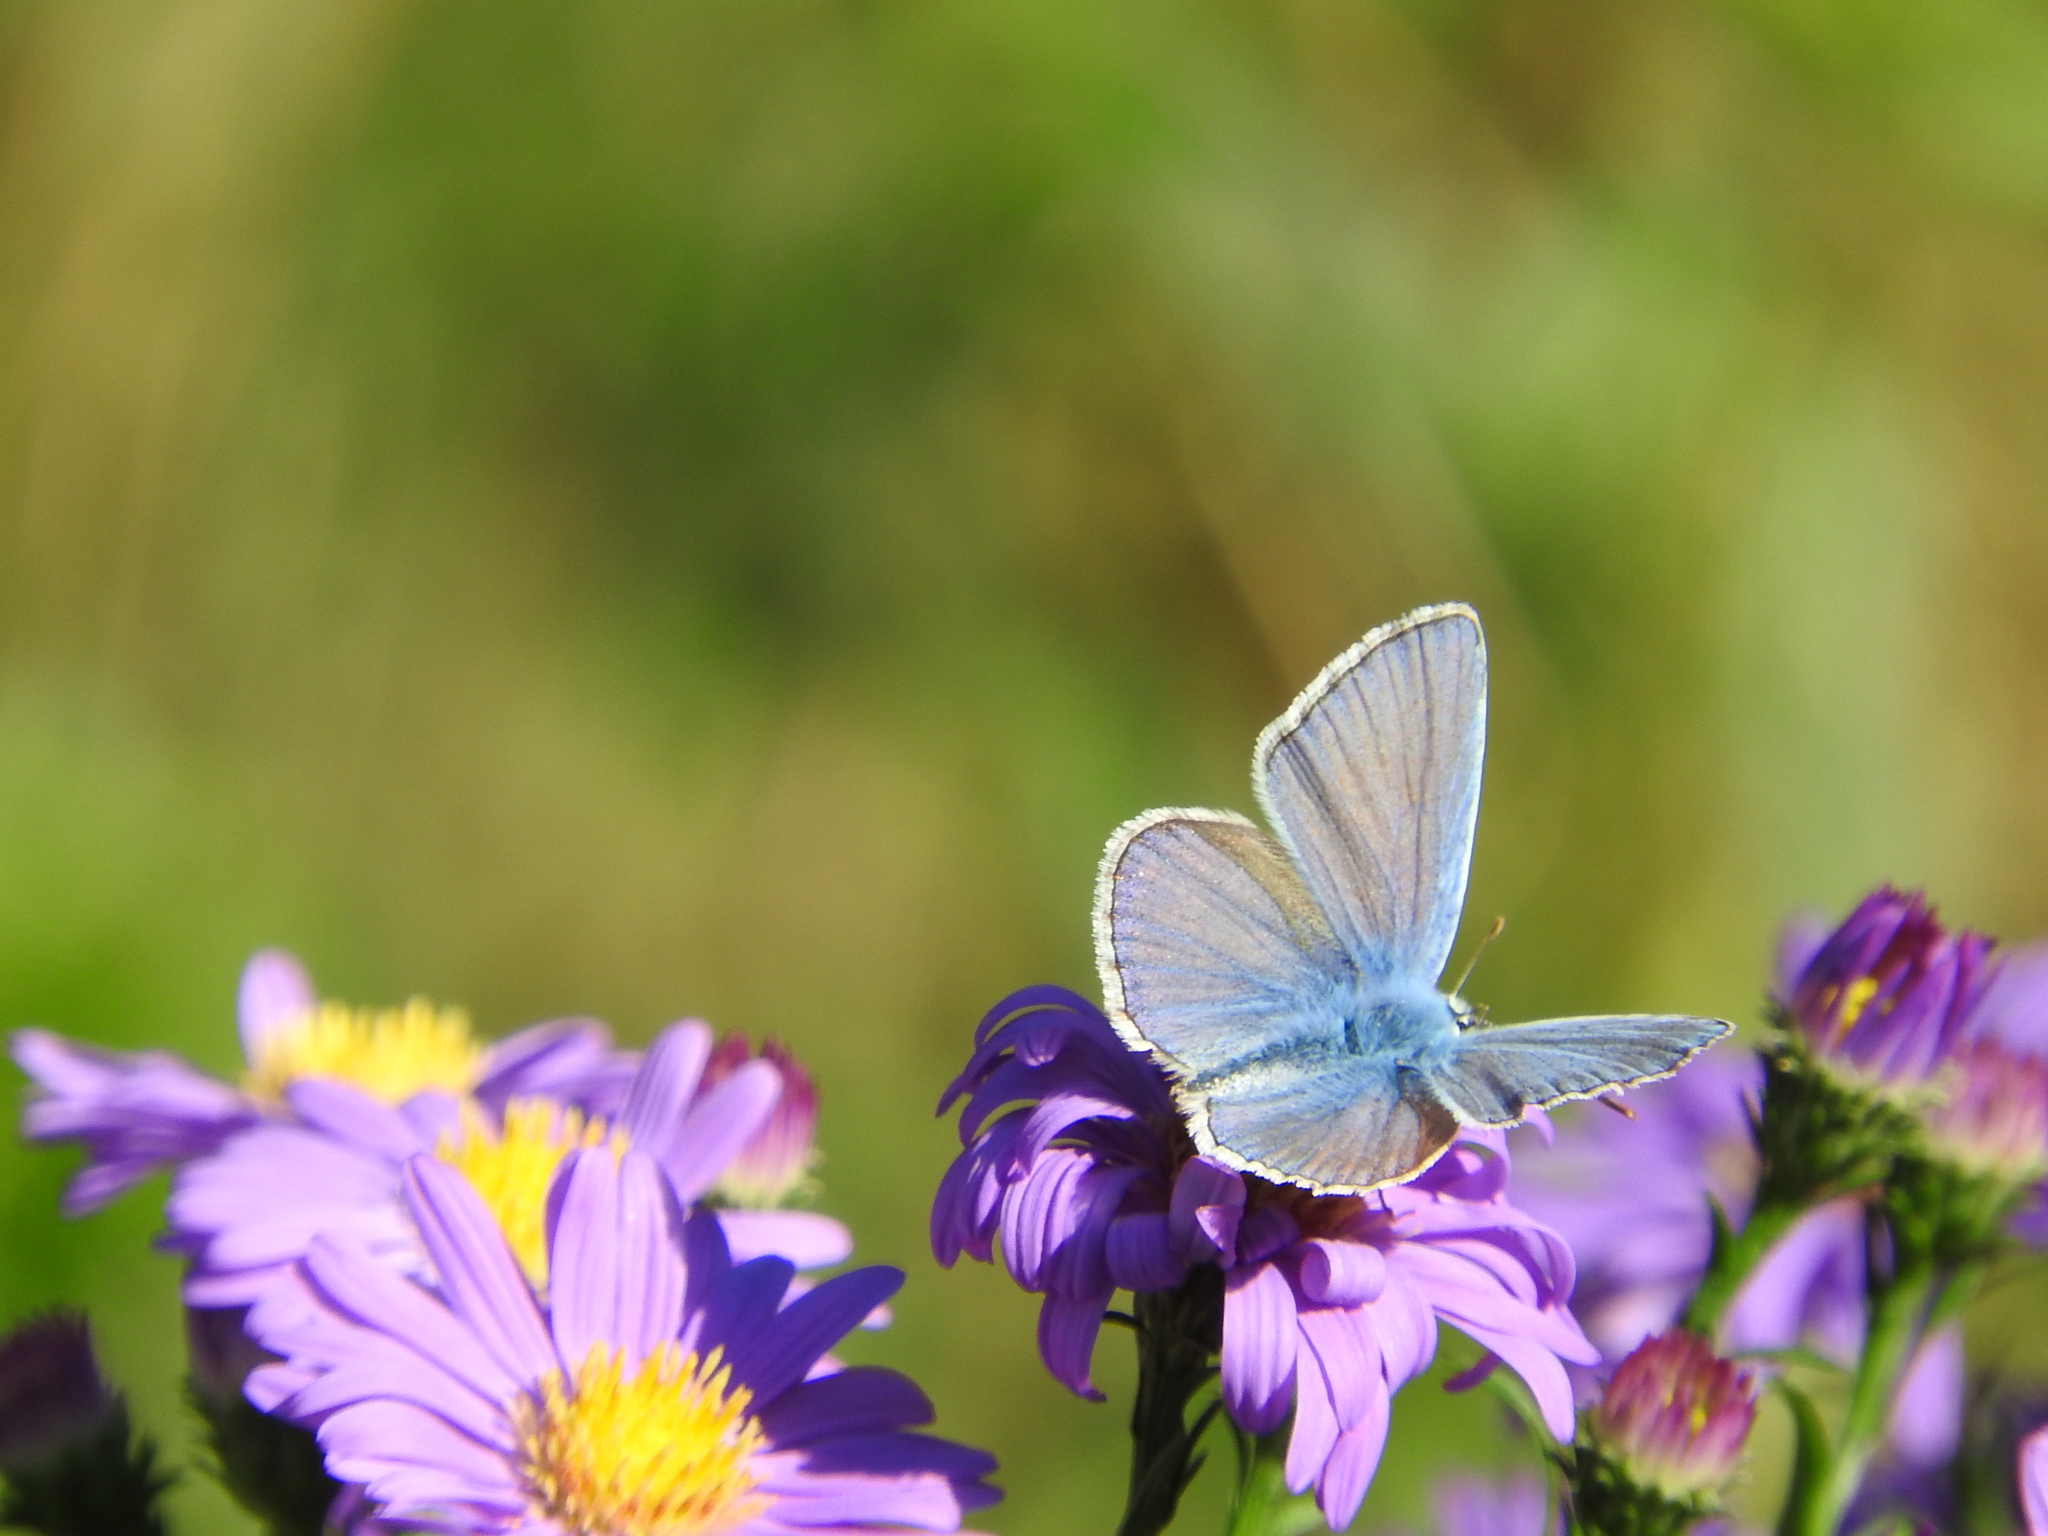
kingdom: Animalia
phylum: Arthropoda
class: Insecta
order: Lepidoptera
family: Lycaenidae
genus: Polyommatus
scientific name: Polyommatus icarus
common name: Common blue
